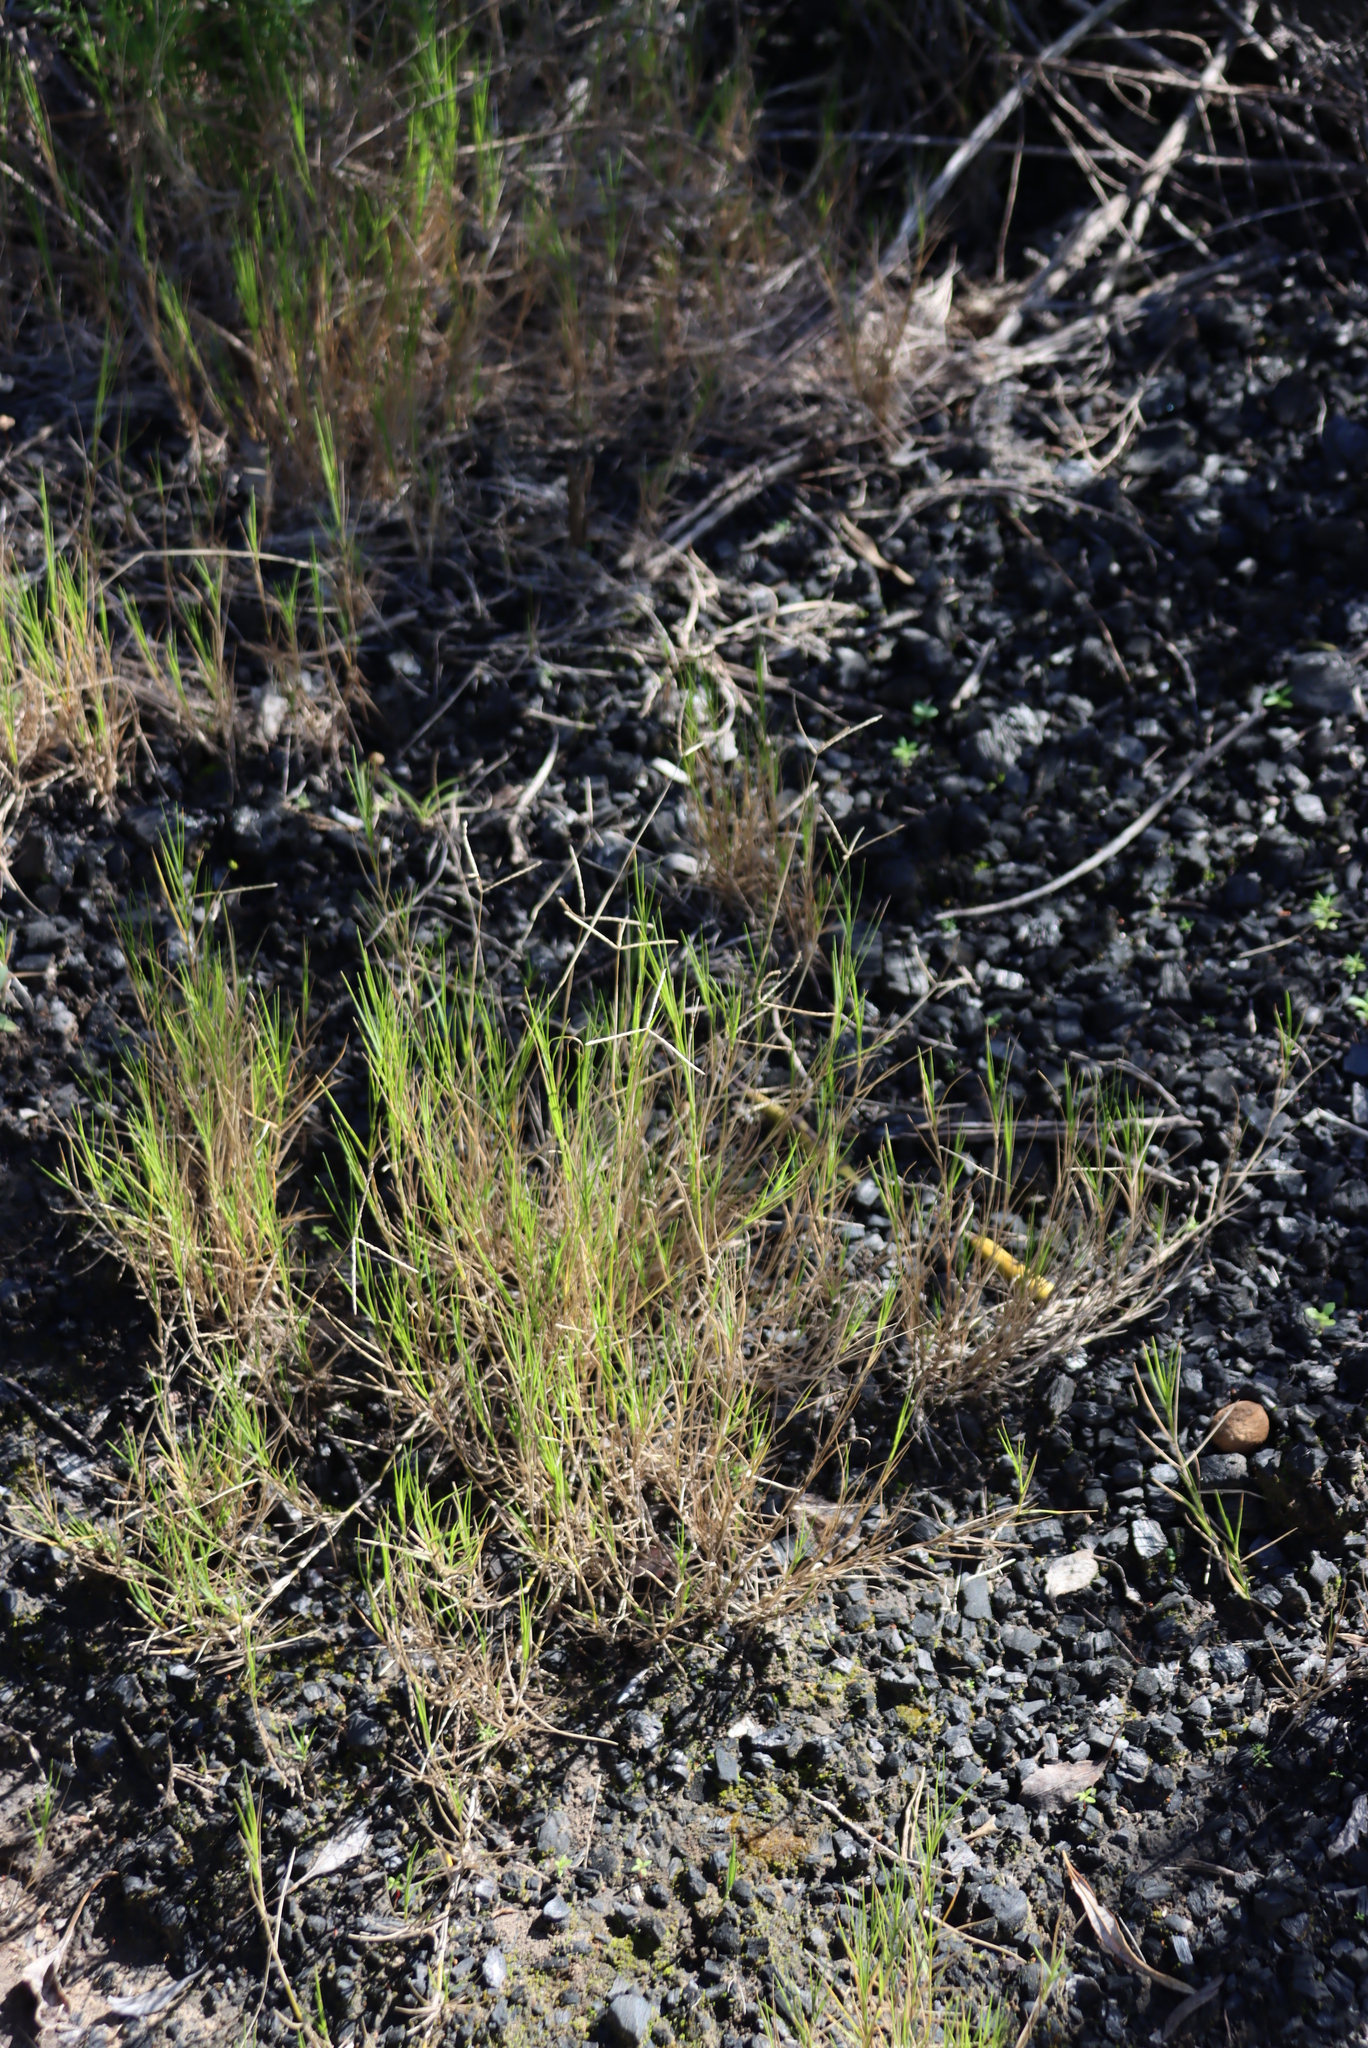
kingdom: Plantae
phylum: Tracheophyta
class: Liliopsida
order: Poales
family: Poaceae
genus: Cynodon
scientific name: Cynodon dactylon
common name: Bermuda grass
